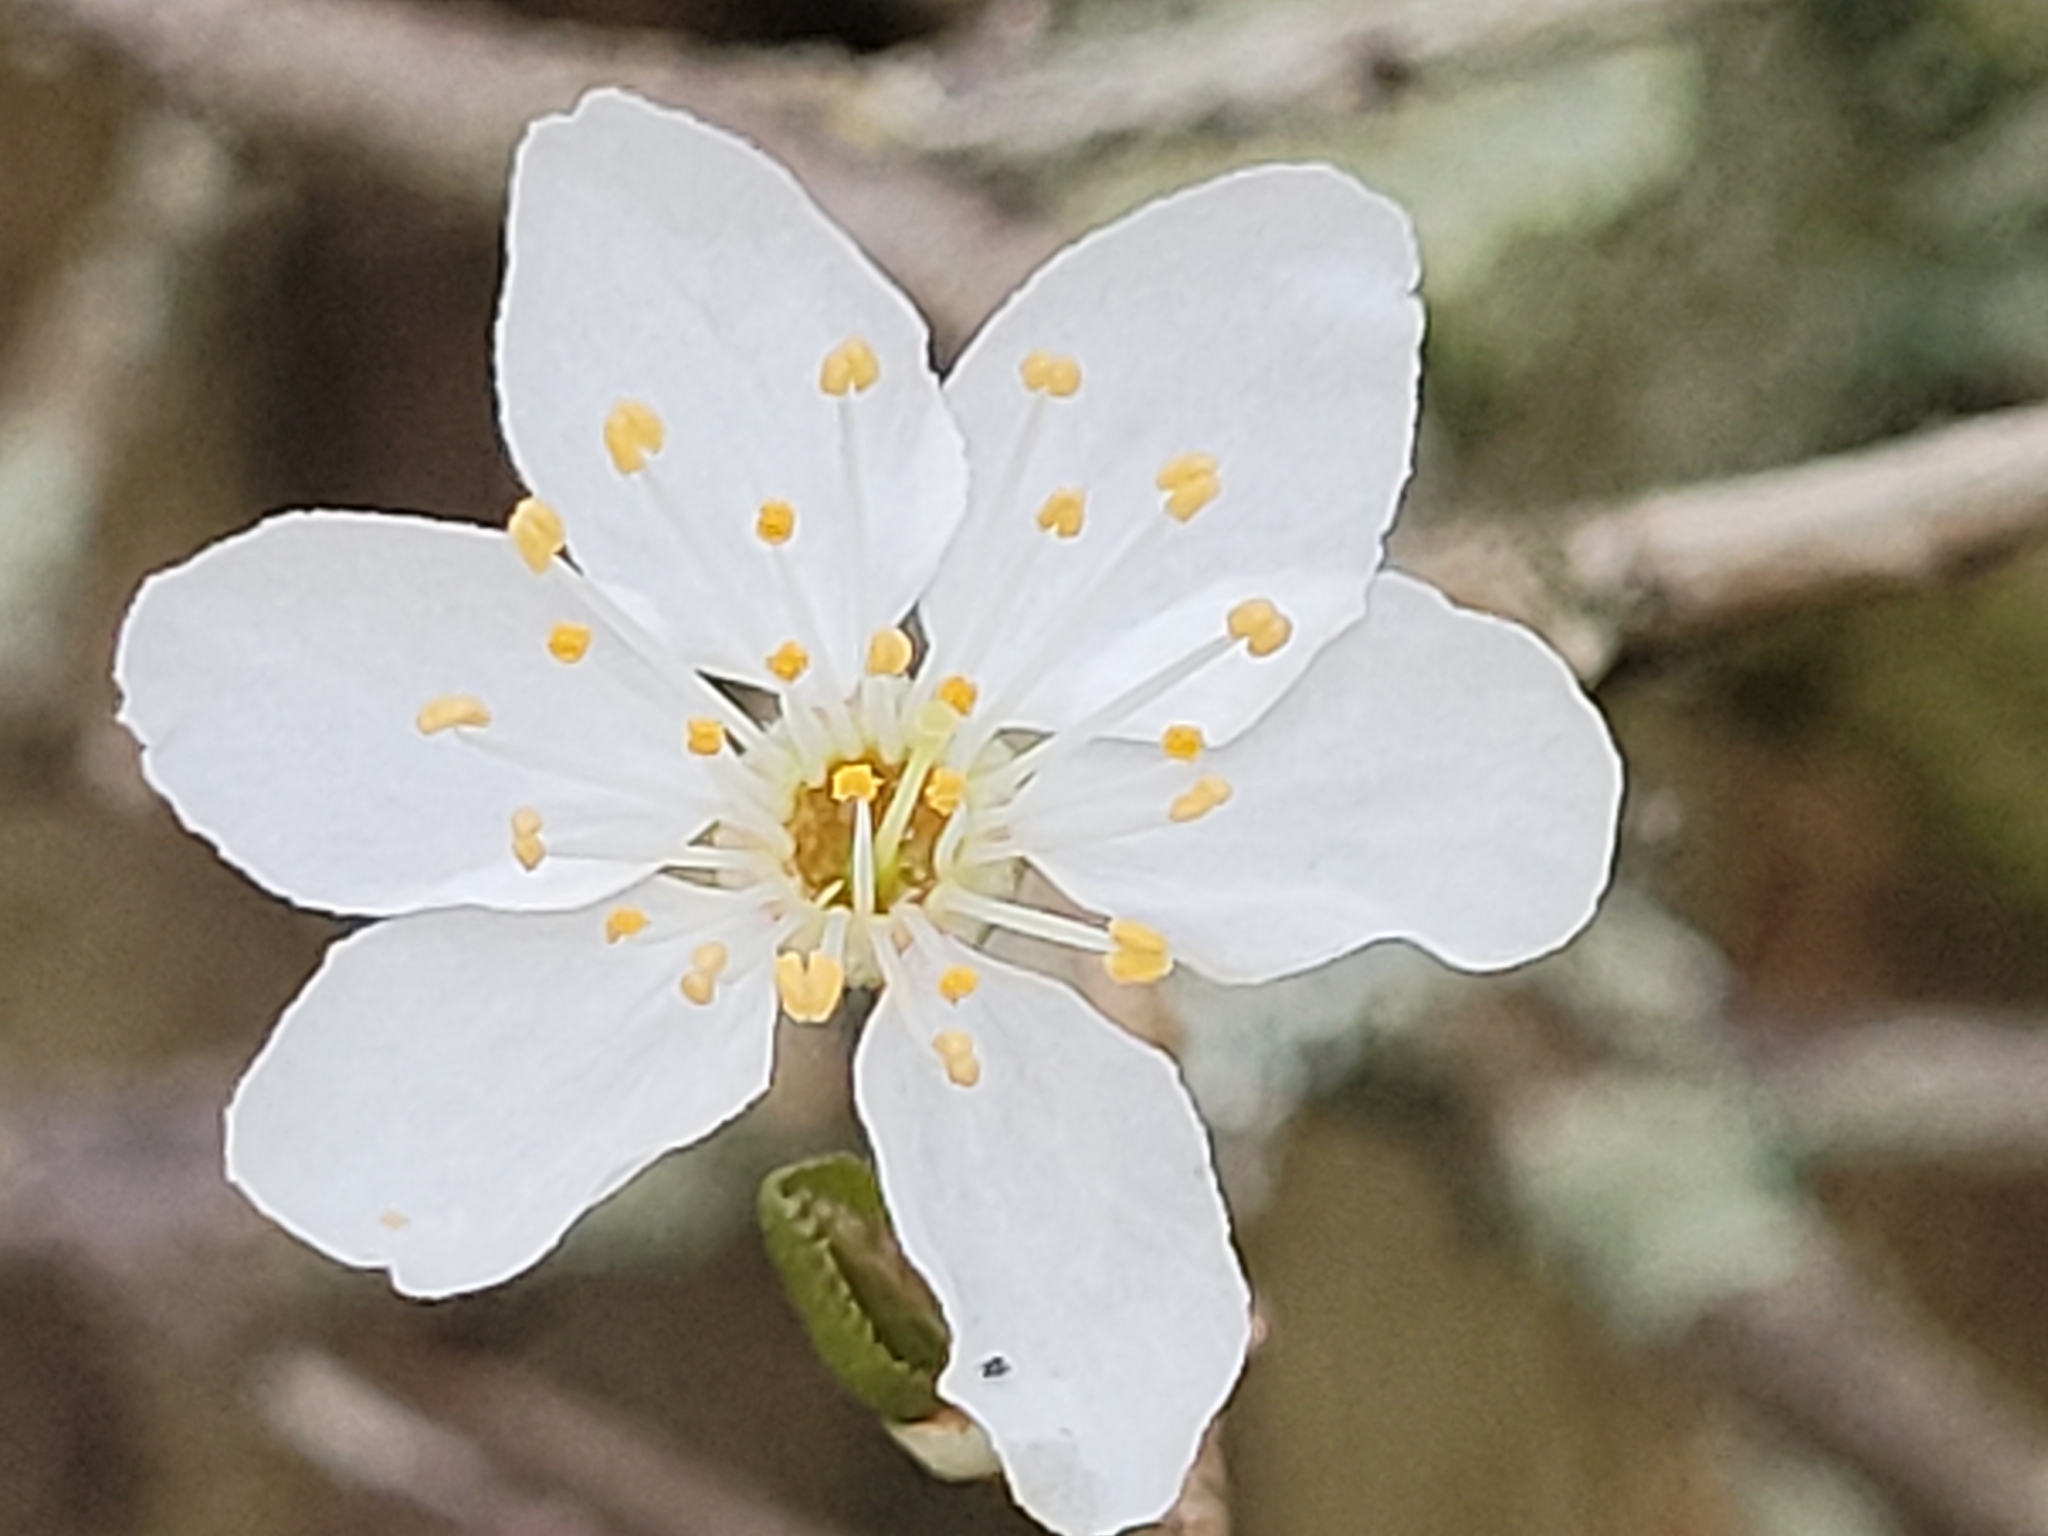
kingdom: Plantae
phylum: Tracheophyta
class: Magnoliopsida
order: Rosales
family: Rosaceae
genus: Prunus
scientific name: Prunus cerasifera
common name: Cherry plum
